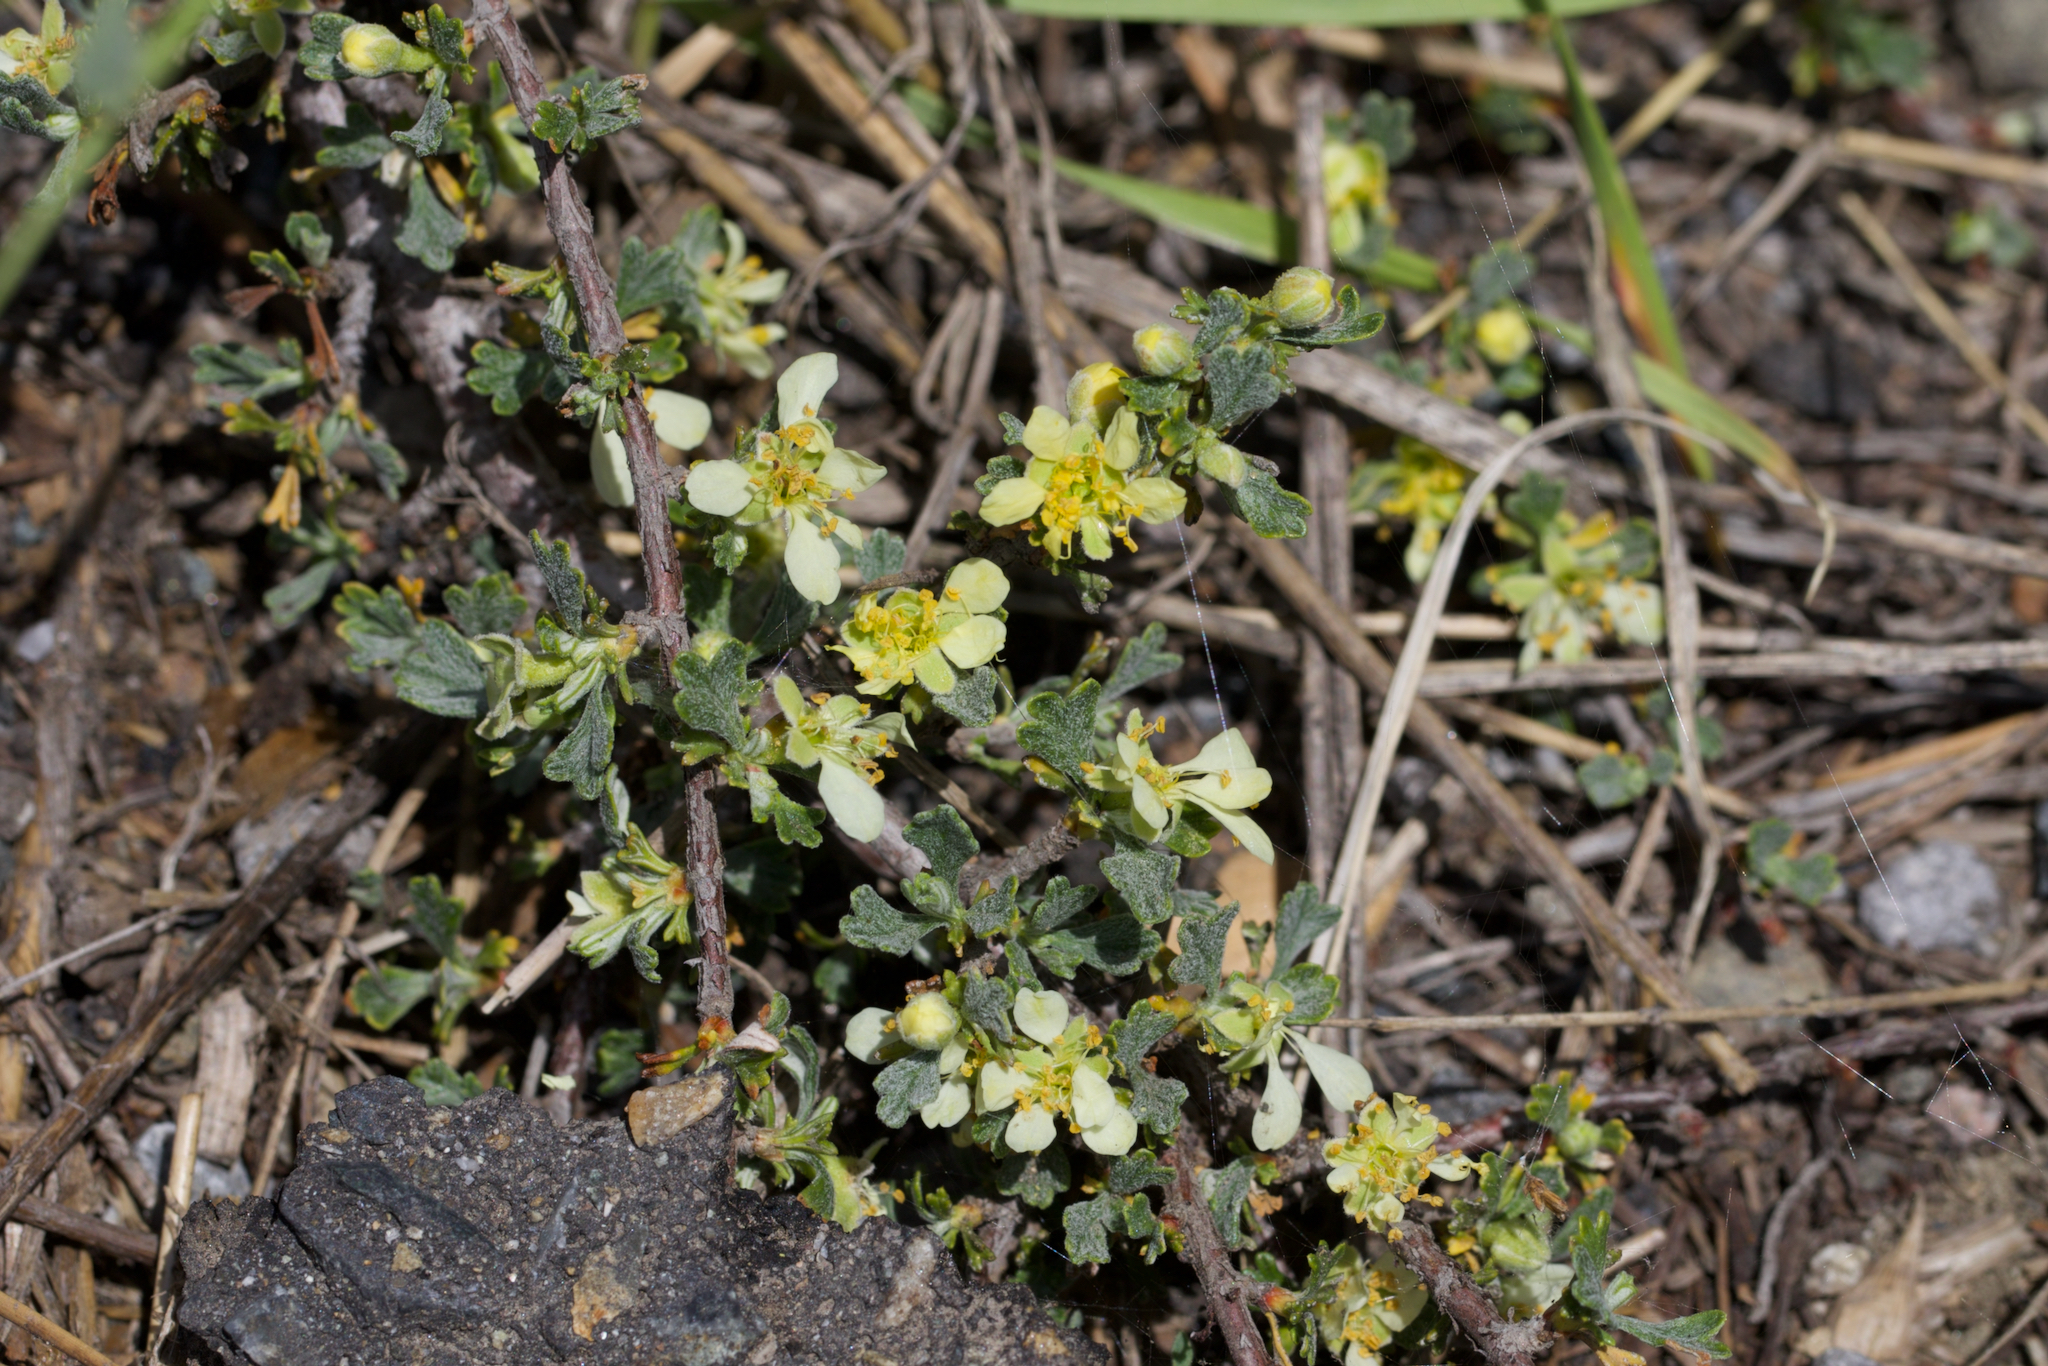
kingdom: Plantae
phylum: Tracheophyta
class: Magnoliopsida
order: Rosales
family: Rosaceae
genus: Purshia
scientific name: Purshia tridentata
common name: Antelope bitterbrush
